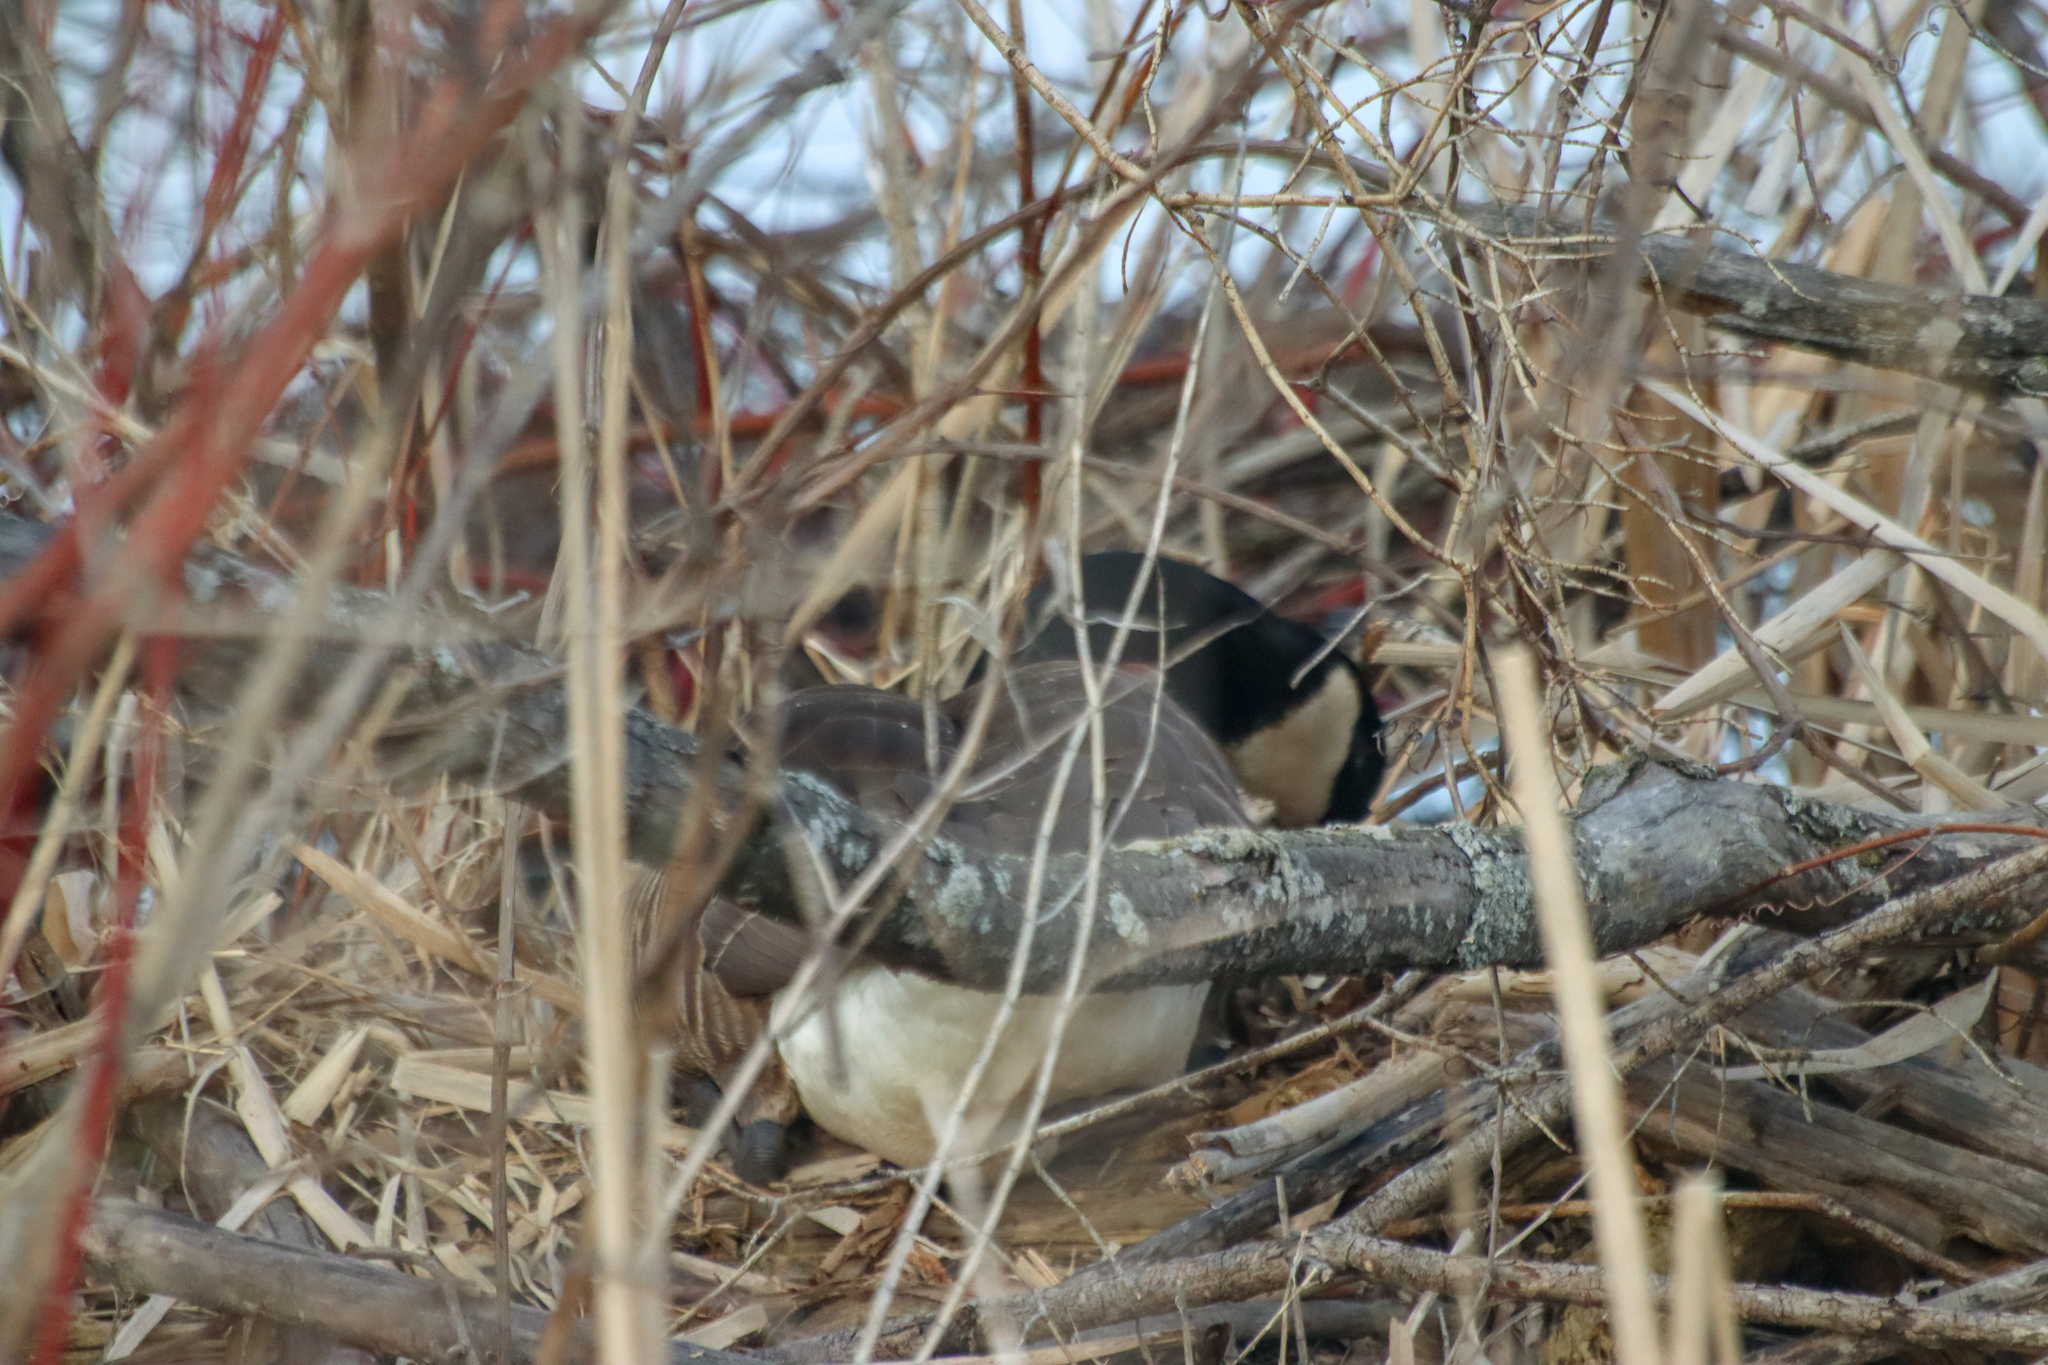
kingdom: Animalia
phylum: Chordata
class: Aves
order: Anseriformes
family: Anatidae
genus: Branta
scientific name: Branta canadensis
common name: Canada goose
